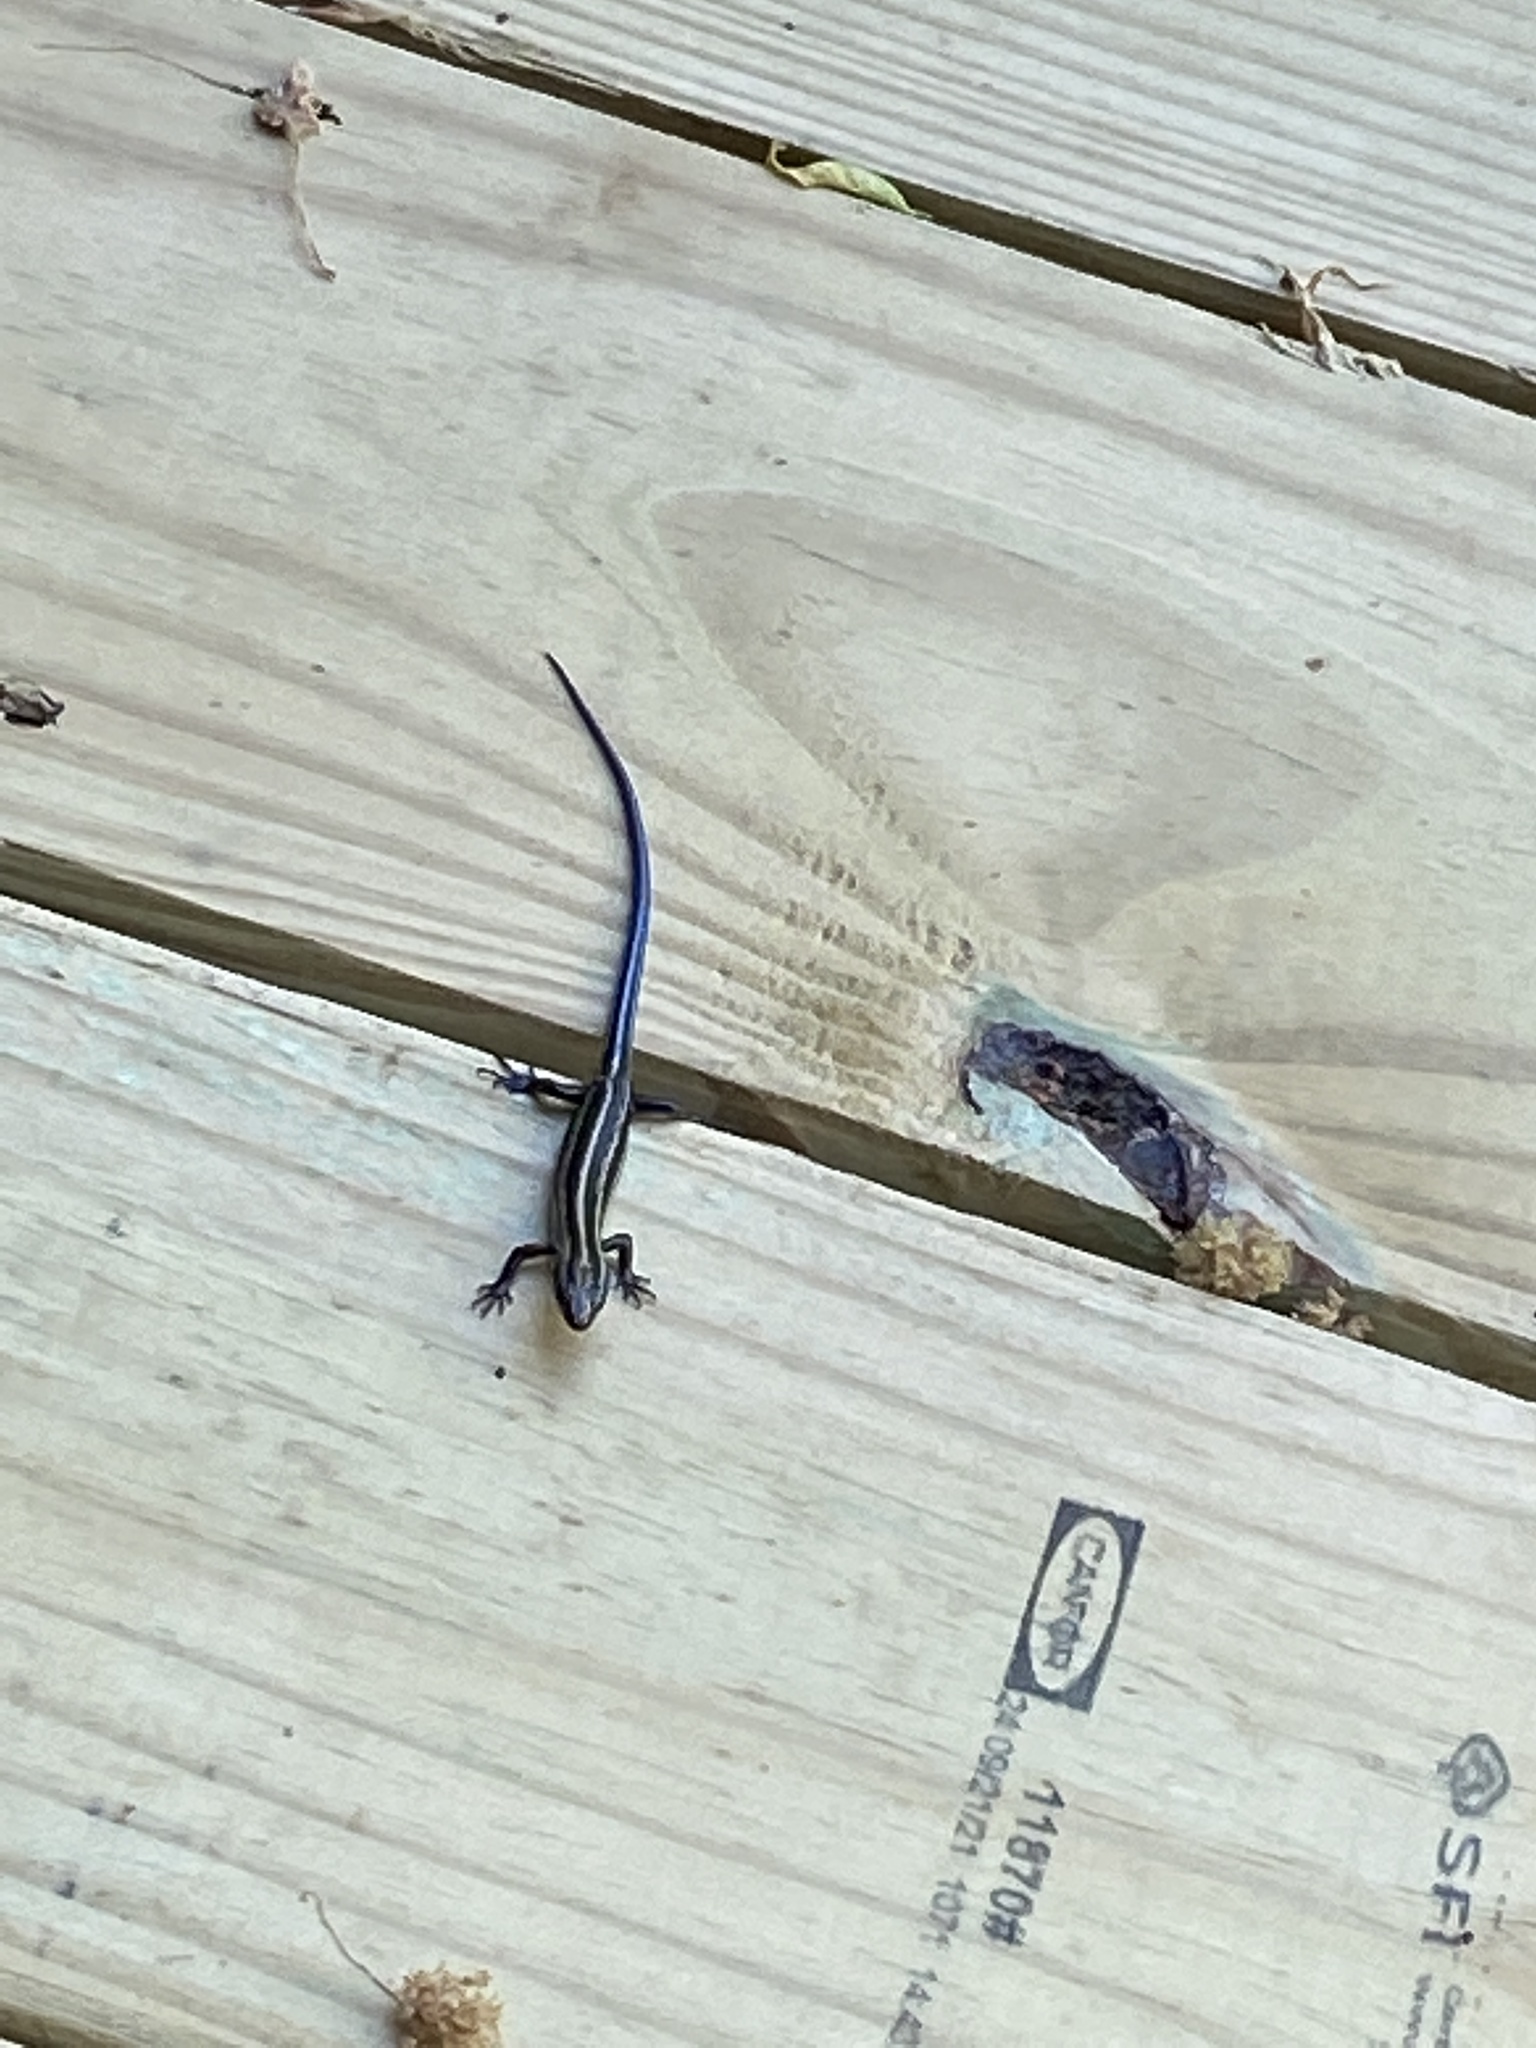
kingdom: Animalia
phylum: Chordata
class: Squamata
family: Scincidae
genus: Plestiodon
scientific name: Plestiodon fasciatus
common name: Five-lined skink
